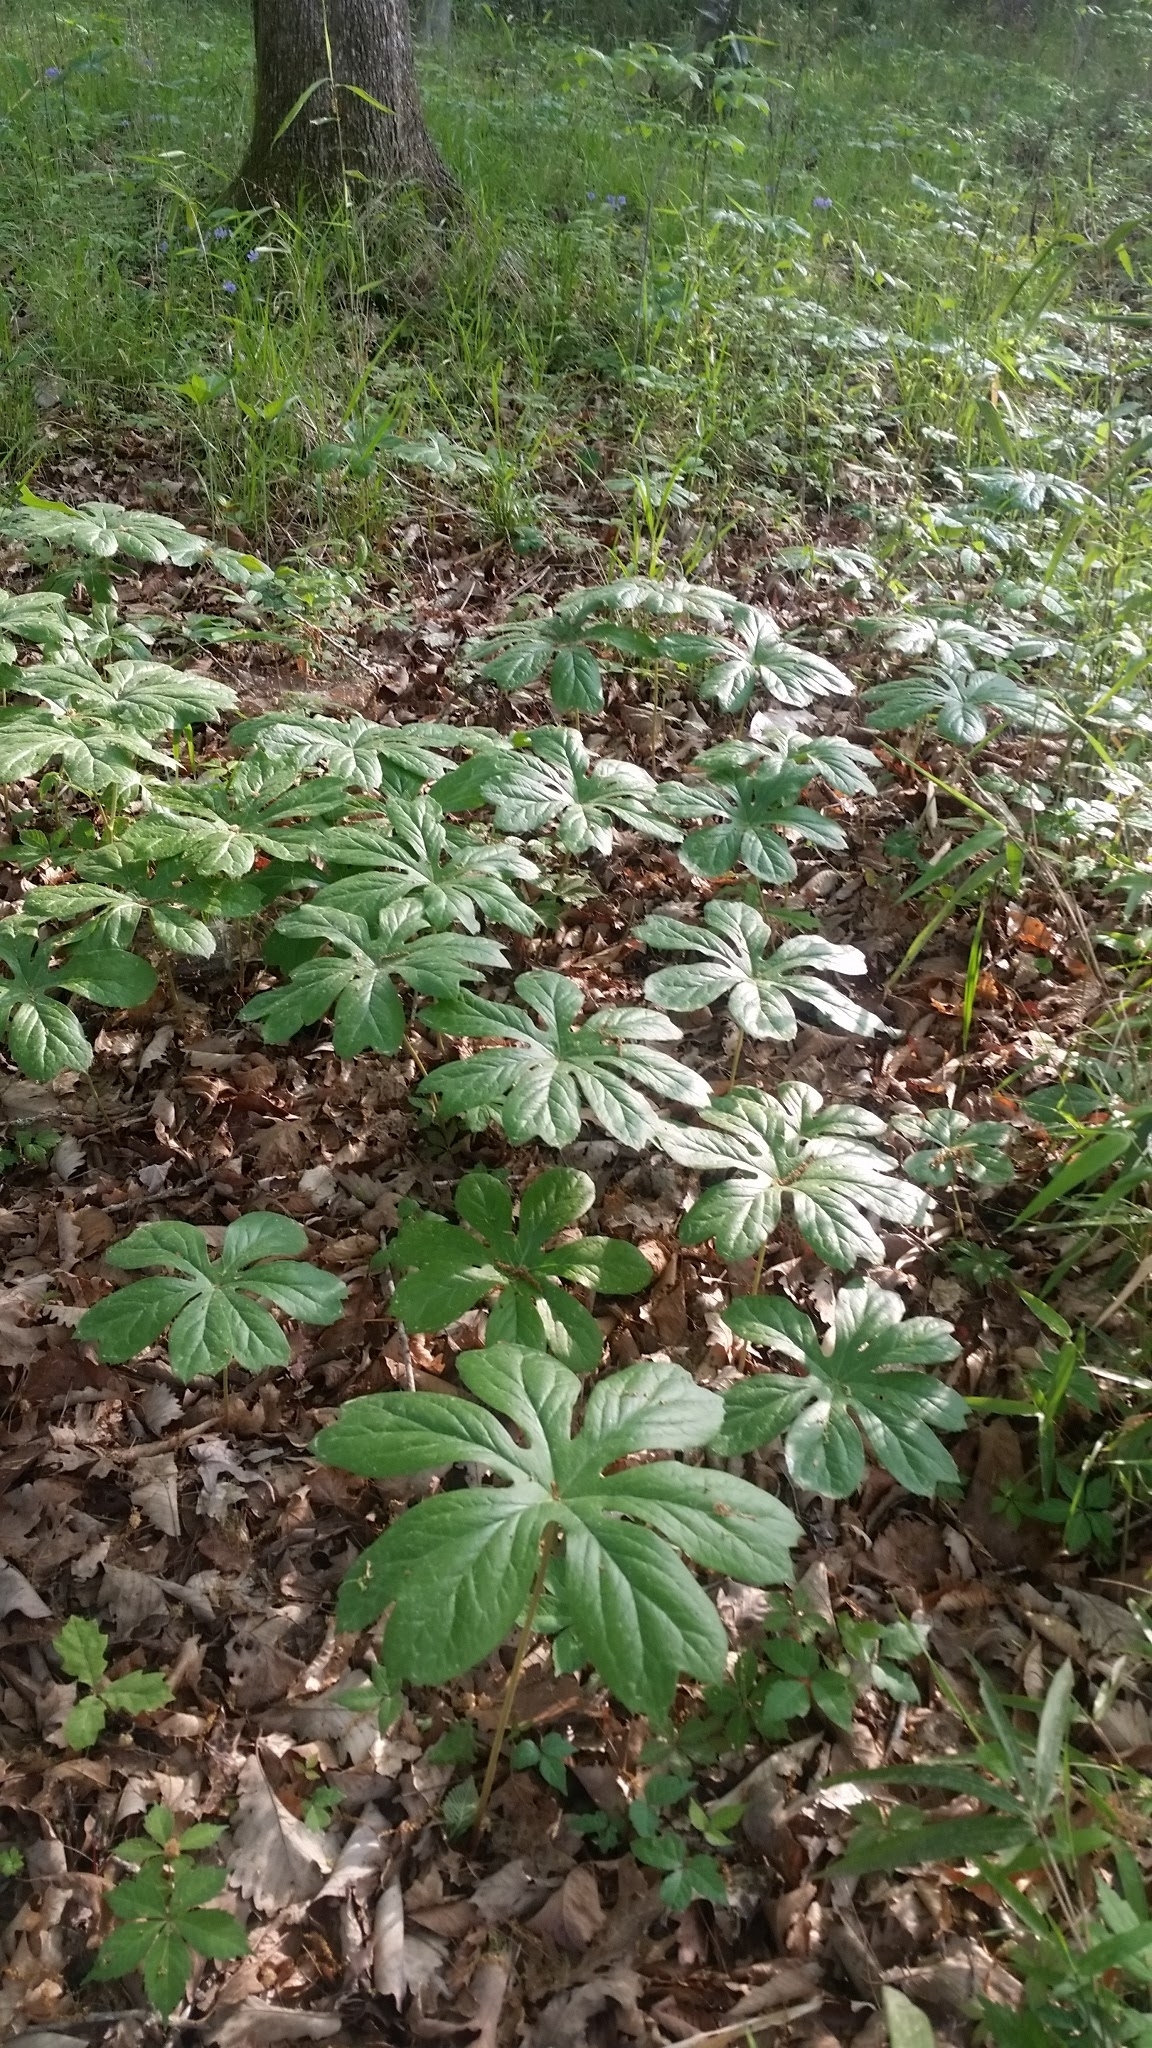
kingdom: Plantae
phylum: Tracheophyta
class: Magnoliopsida
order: Ranunculales
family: Berberidaceae
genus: Podophyllum
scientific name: Podophyllum peltatum
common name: Wild mandrake
